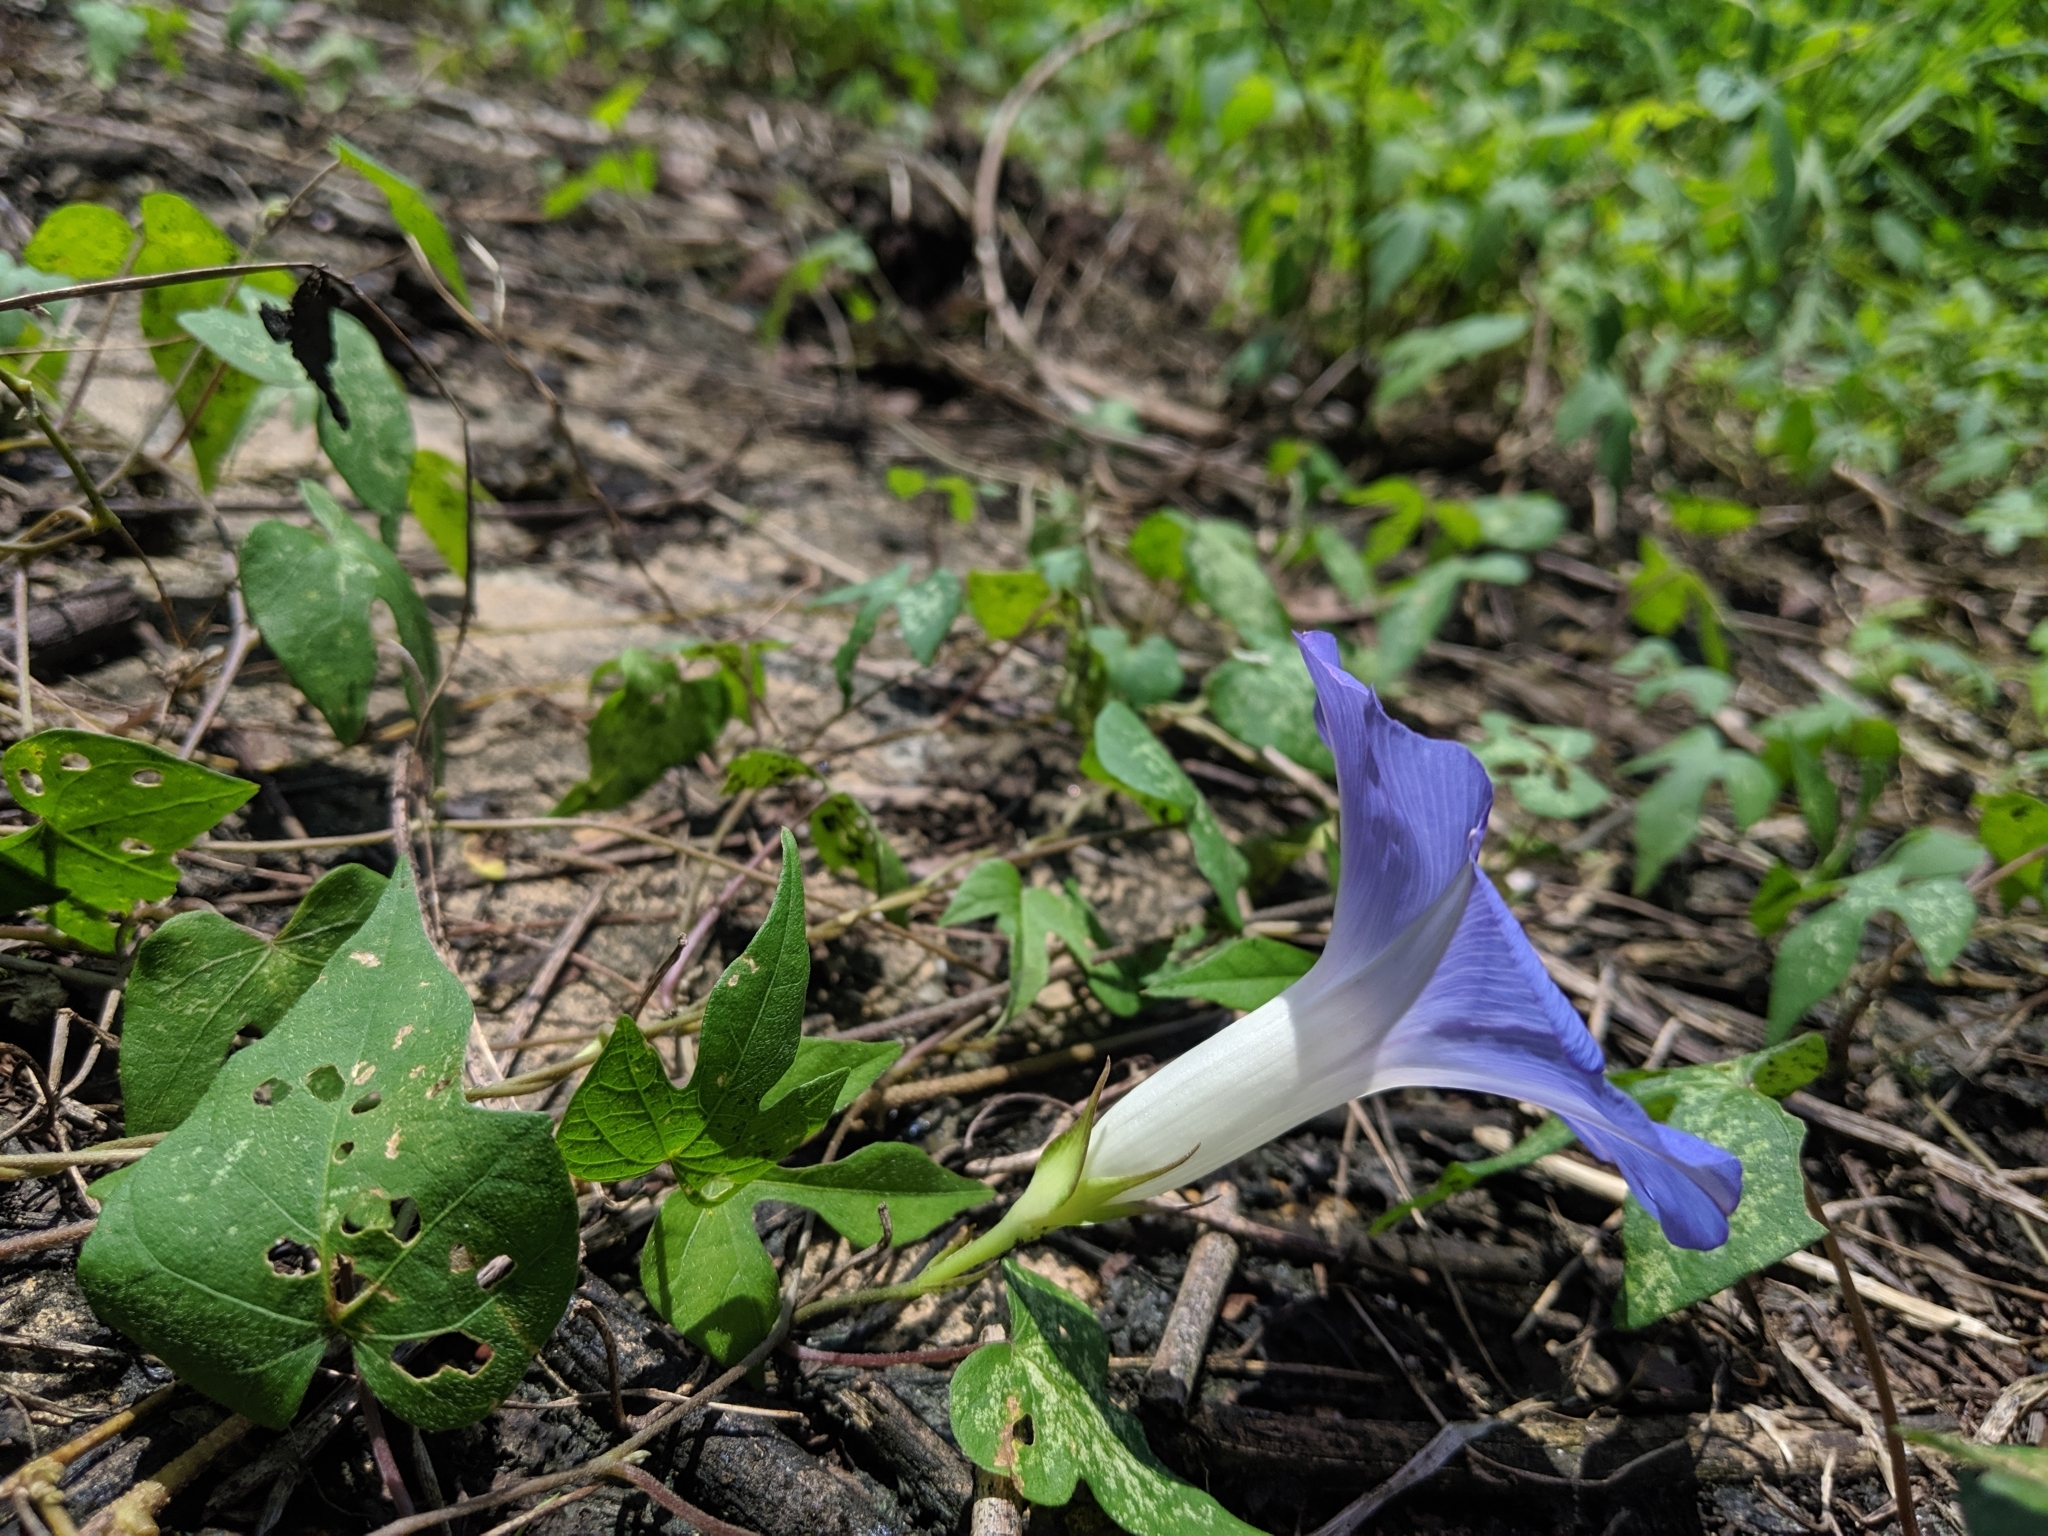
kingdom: Plantae
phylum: Tracheophyta
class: Magnoliopsida
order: Solanales
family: Convolvulaceae
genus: Ipomoea
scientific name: Ipomoea indica
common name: Blue dawnflower
